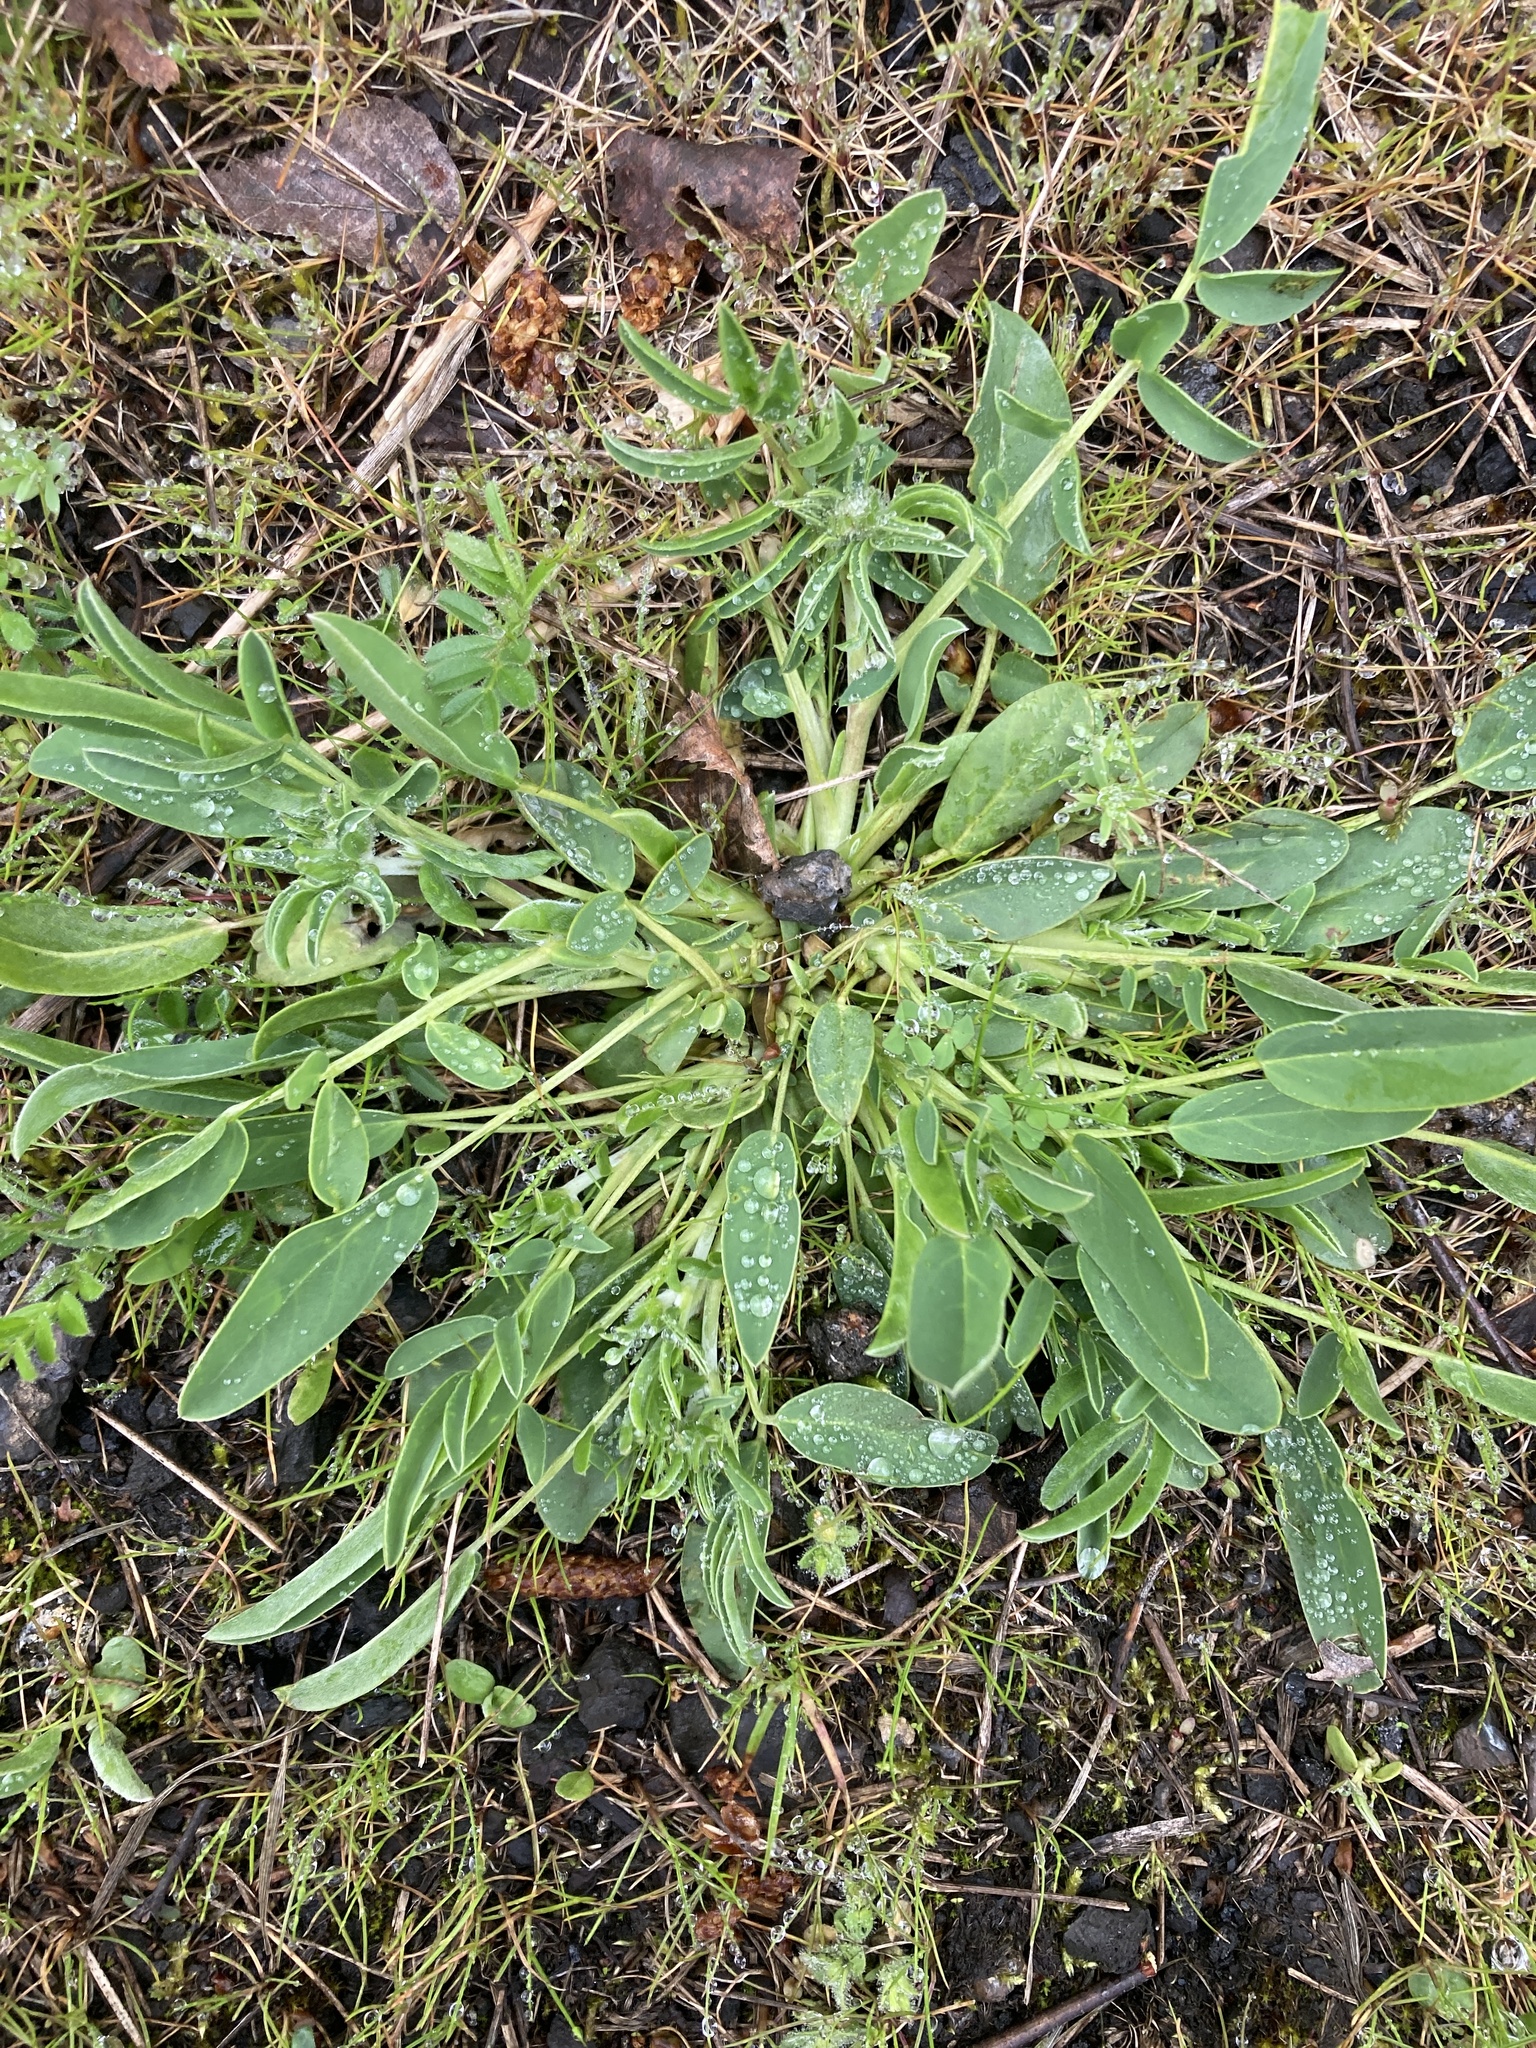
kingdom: Plantae
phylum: Tracheophyta
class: Magnoliopsida
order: Fabales
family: Fabaceae
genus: Anthyllis
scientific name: Anthyllis vulneraria
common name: Kidney vetch
